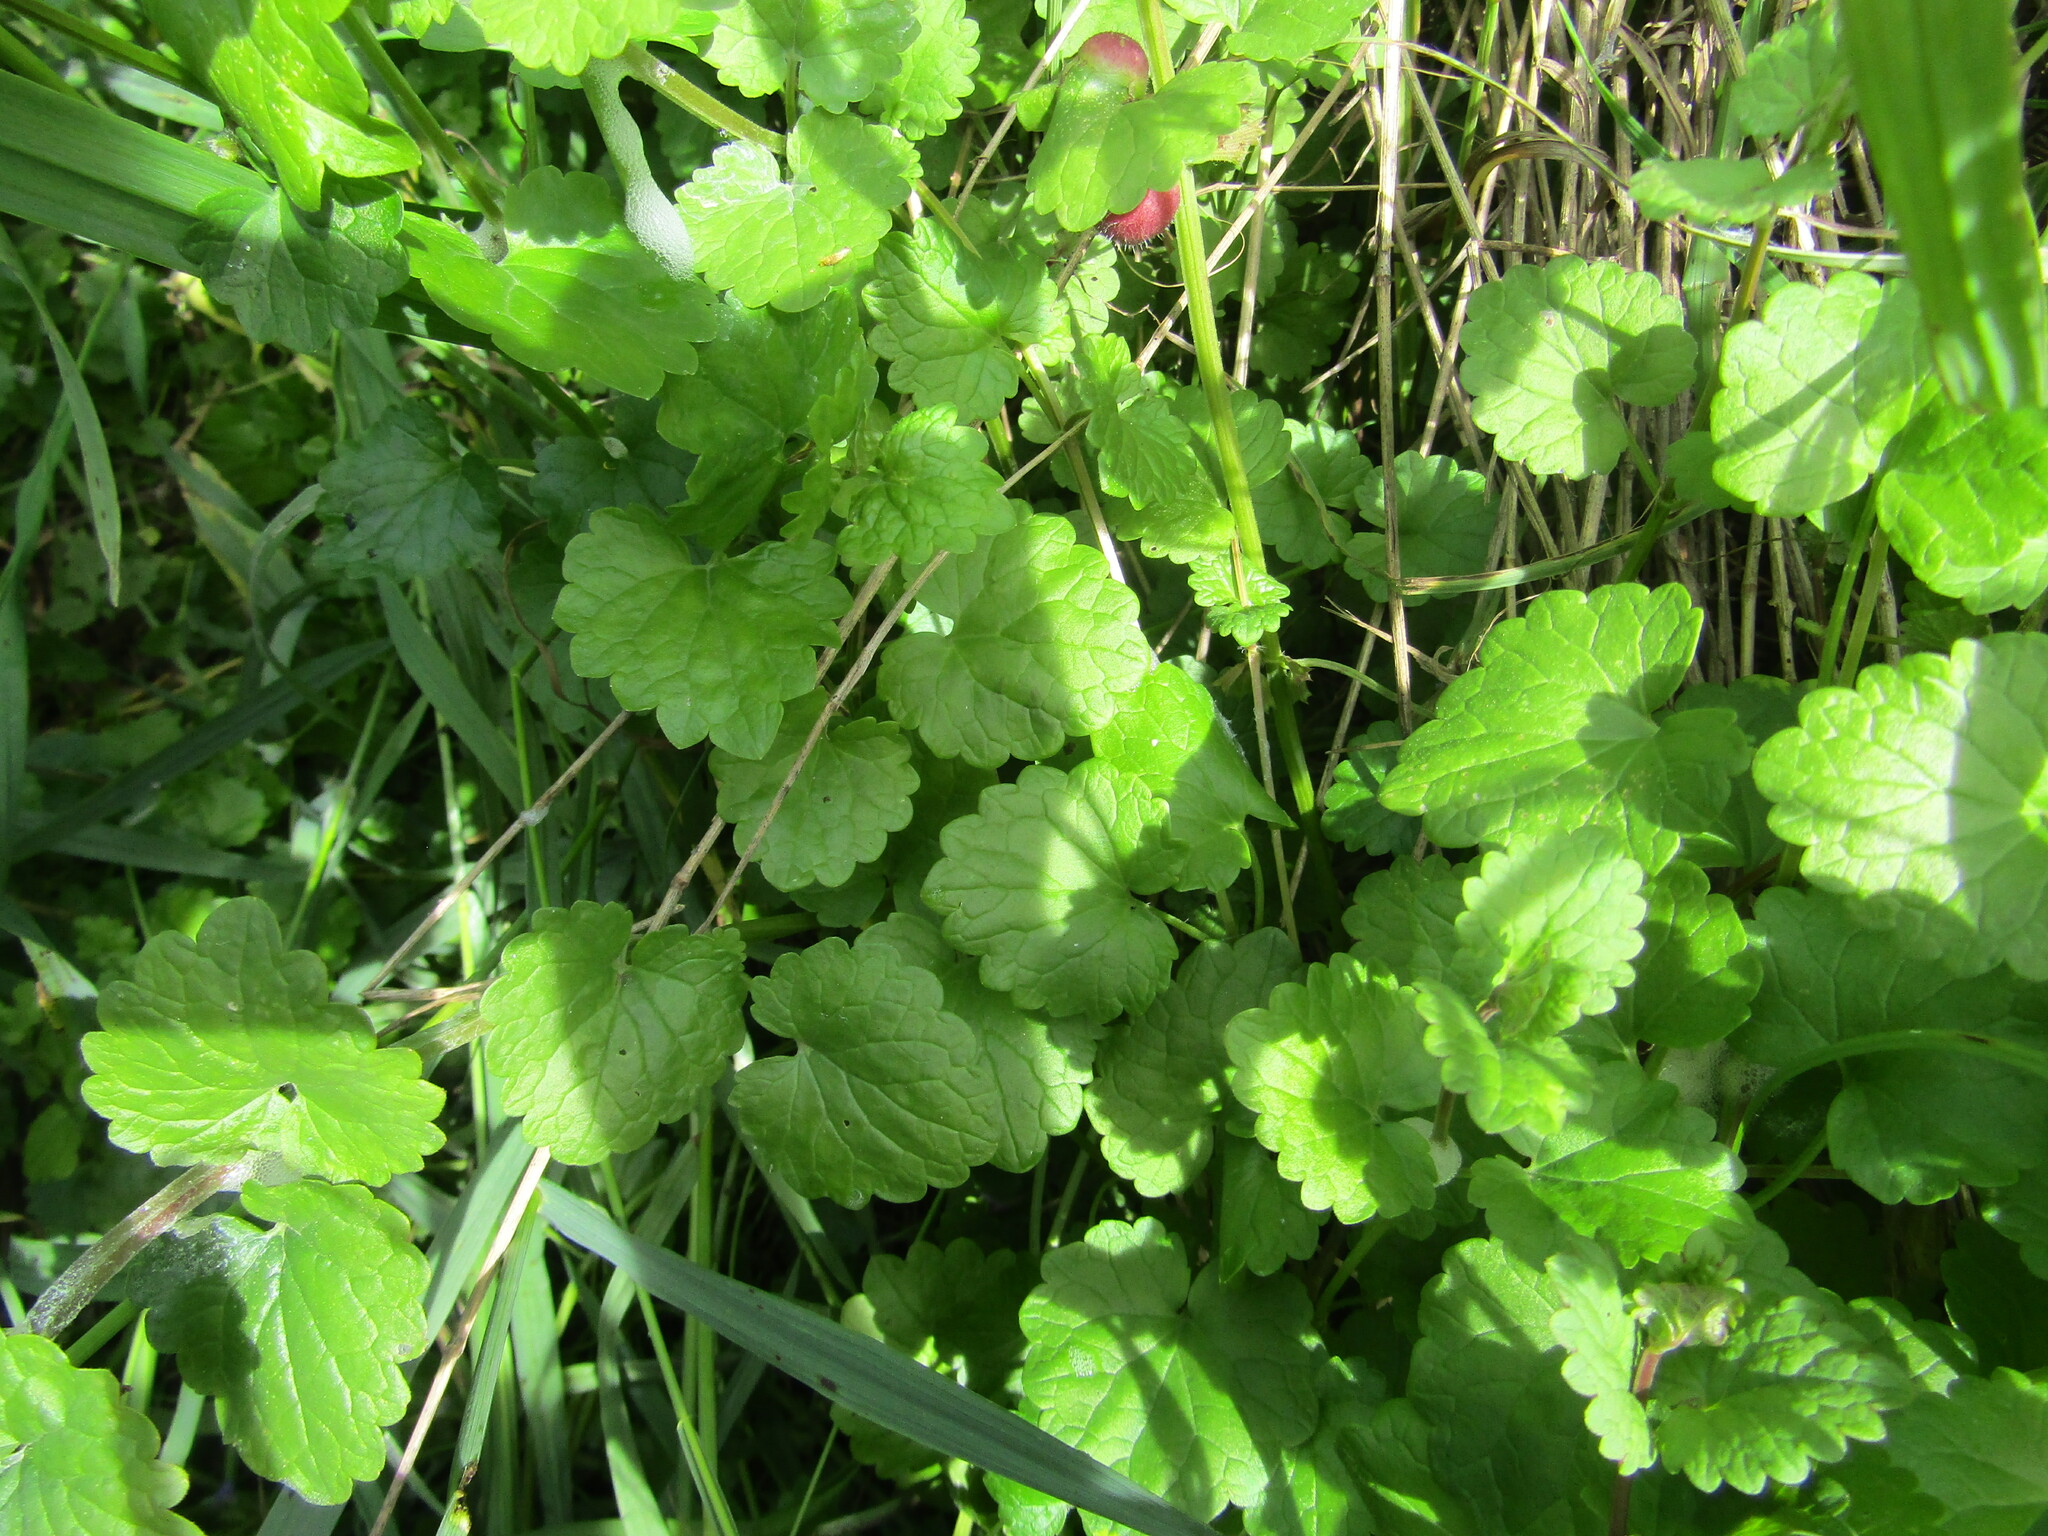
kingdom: Plantae
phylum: Tracheophyta
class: Magnoliopsida
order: Lamiales
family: Lamiaceae
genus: Glechoma
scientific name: Glechoma hederacea
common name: Ground ivy
